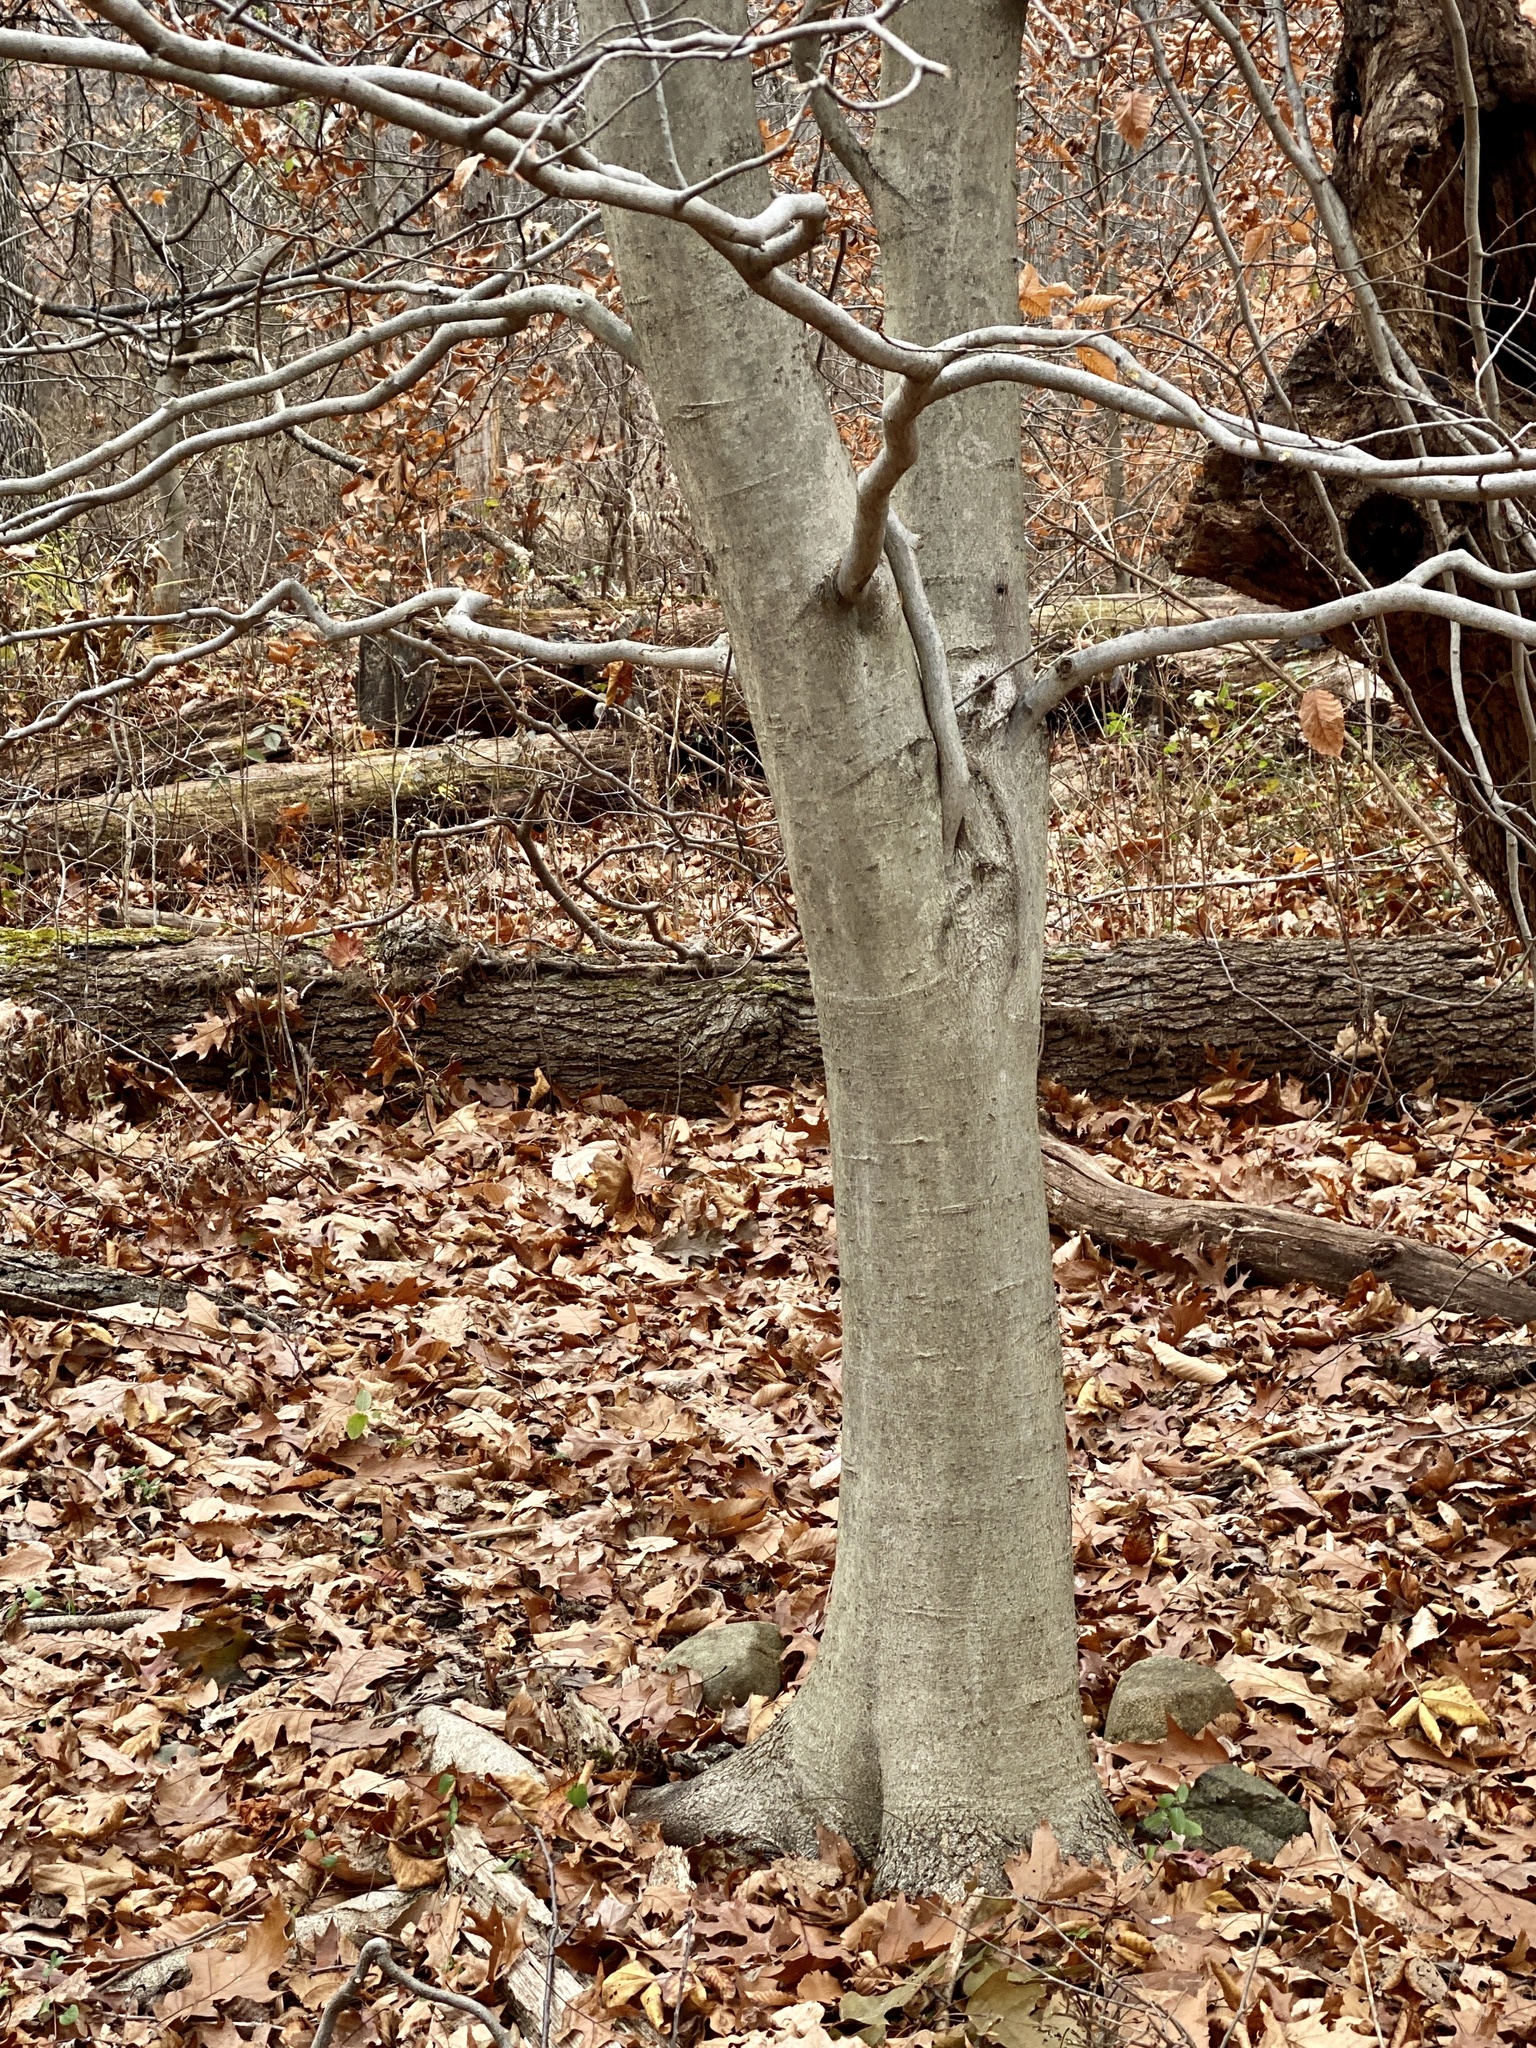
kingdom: Plantae
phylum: Tracheophyta
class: Magnoliopsida
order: Fagales
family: Fagaceae
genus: Fagus
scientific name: Fagus grandifolia
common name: American beech
